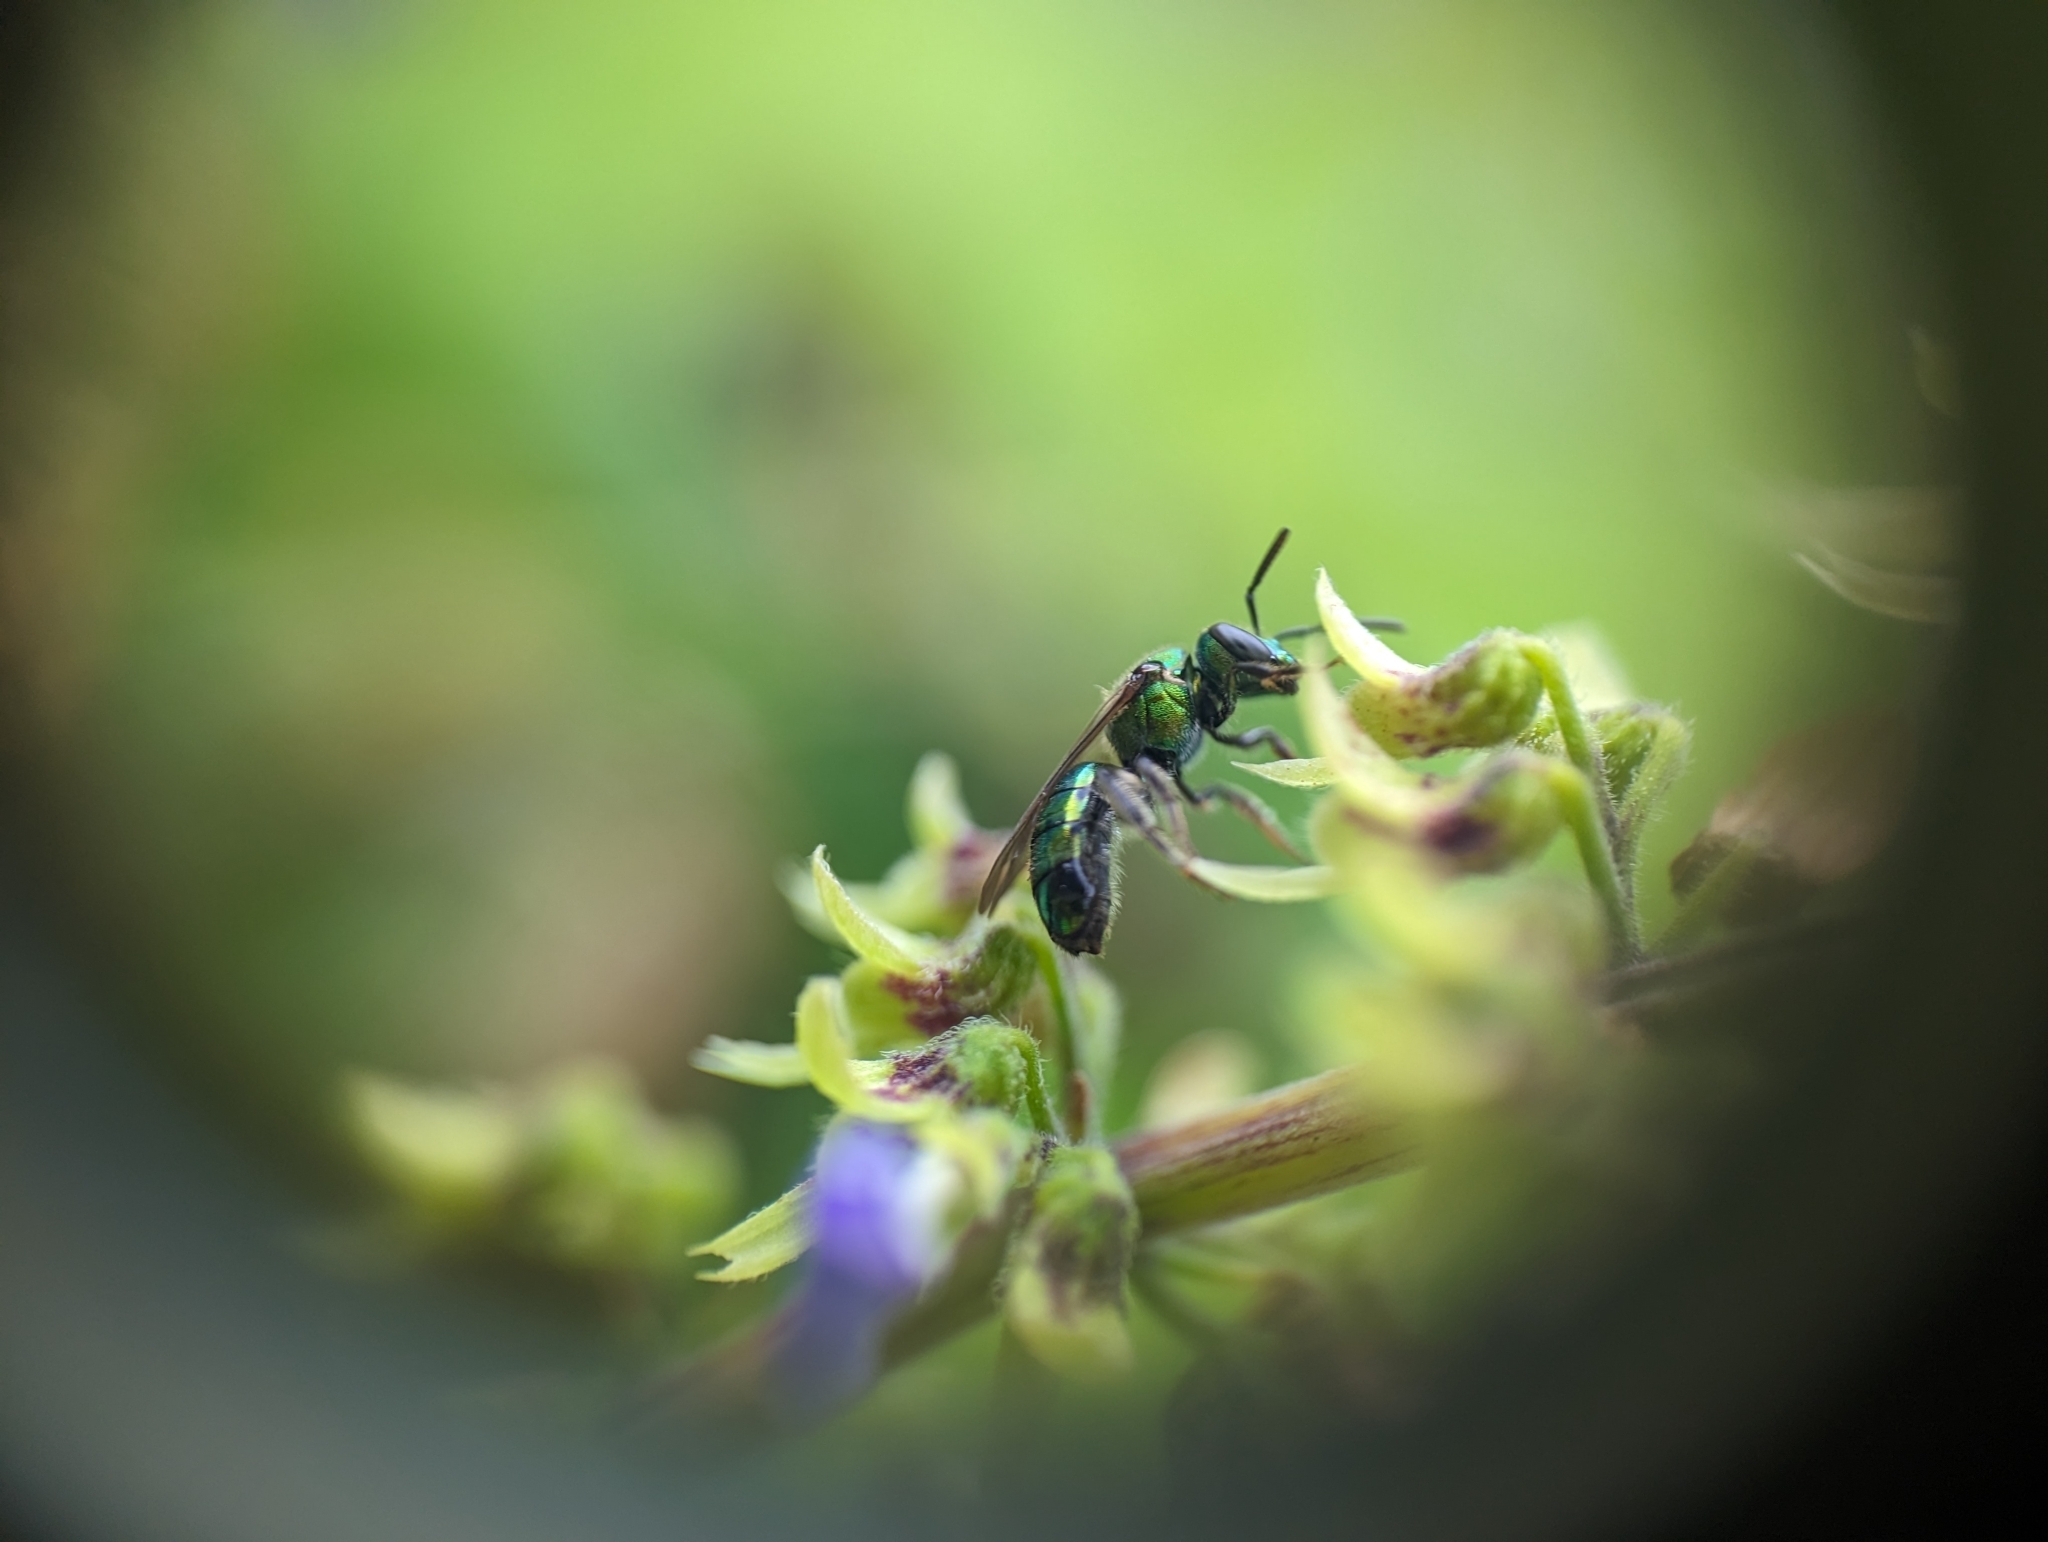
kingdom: Animalia
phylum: Arthropoda
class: Insecta
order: Hymenoptera
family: Halictidae
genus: Augochlora
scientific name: Augochlora pura
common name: Pure green sweat bee
